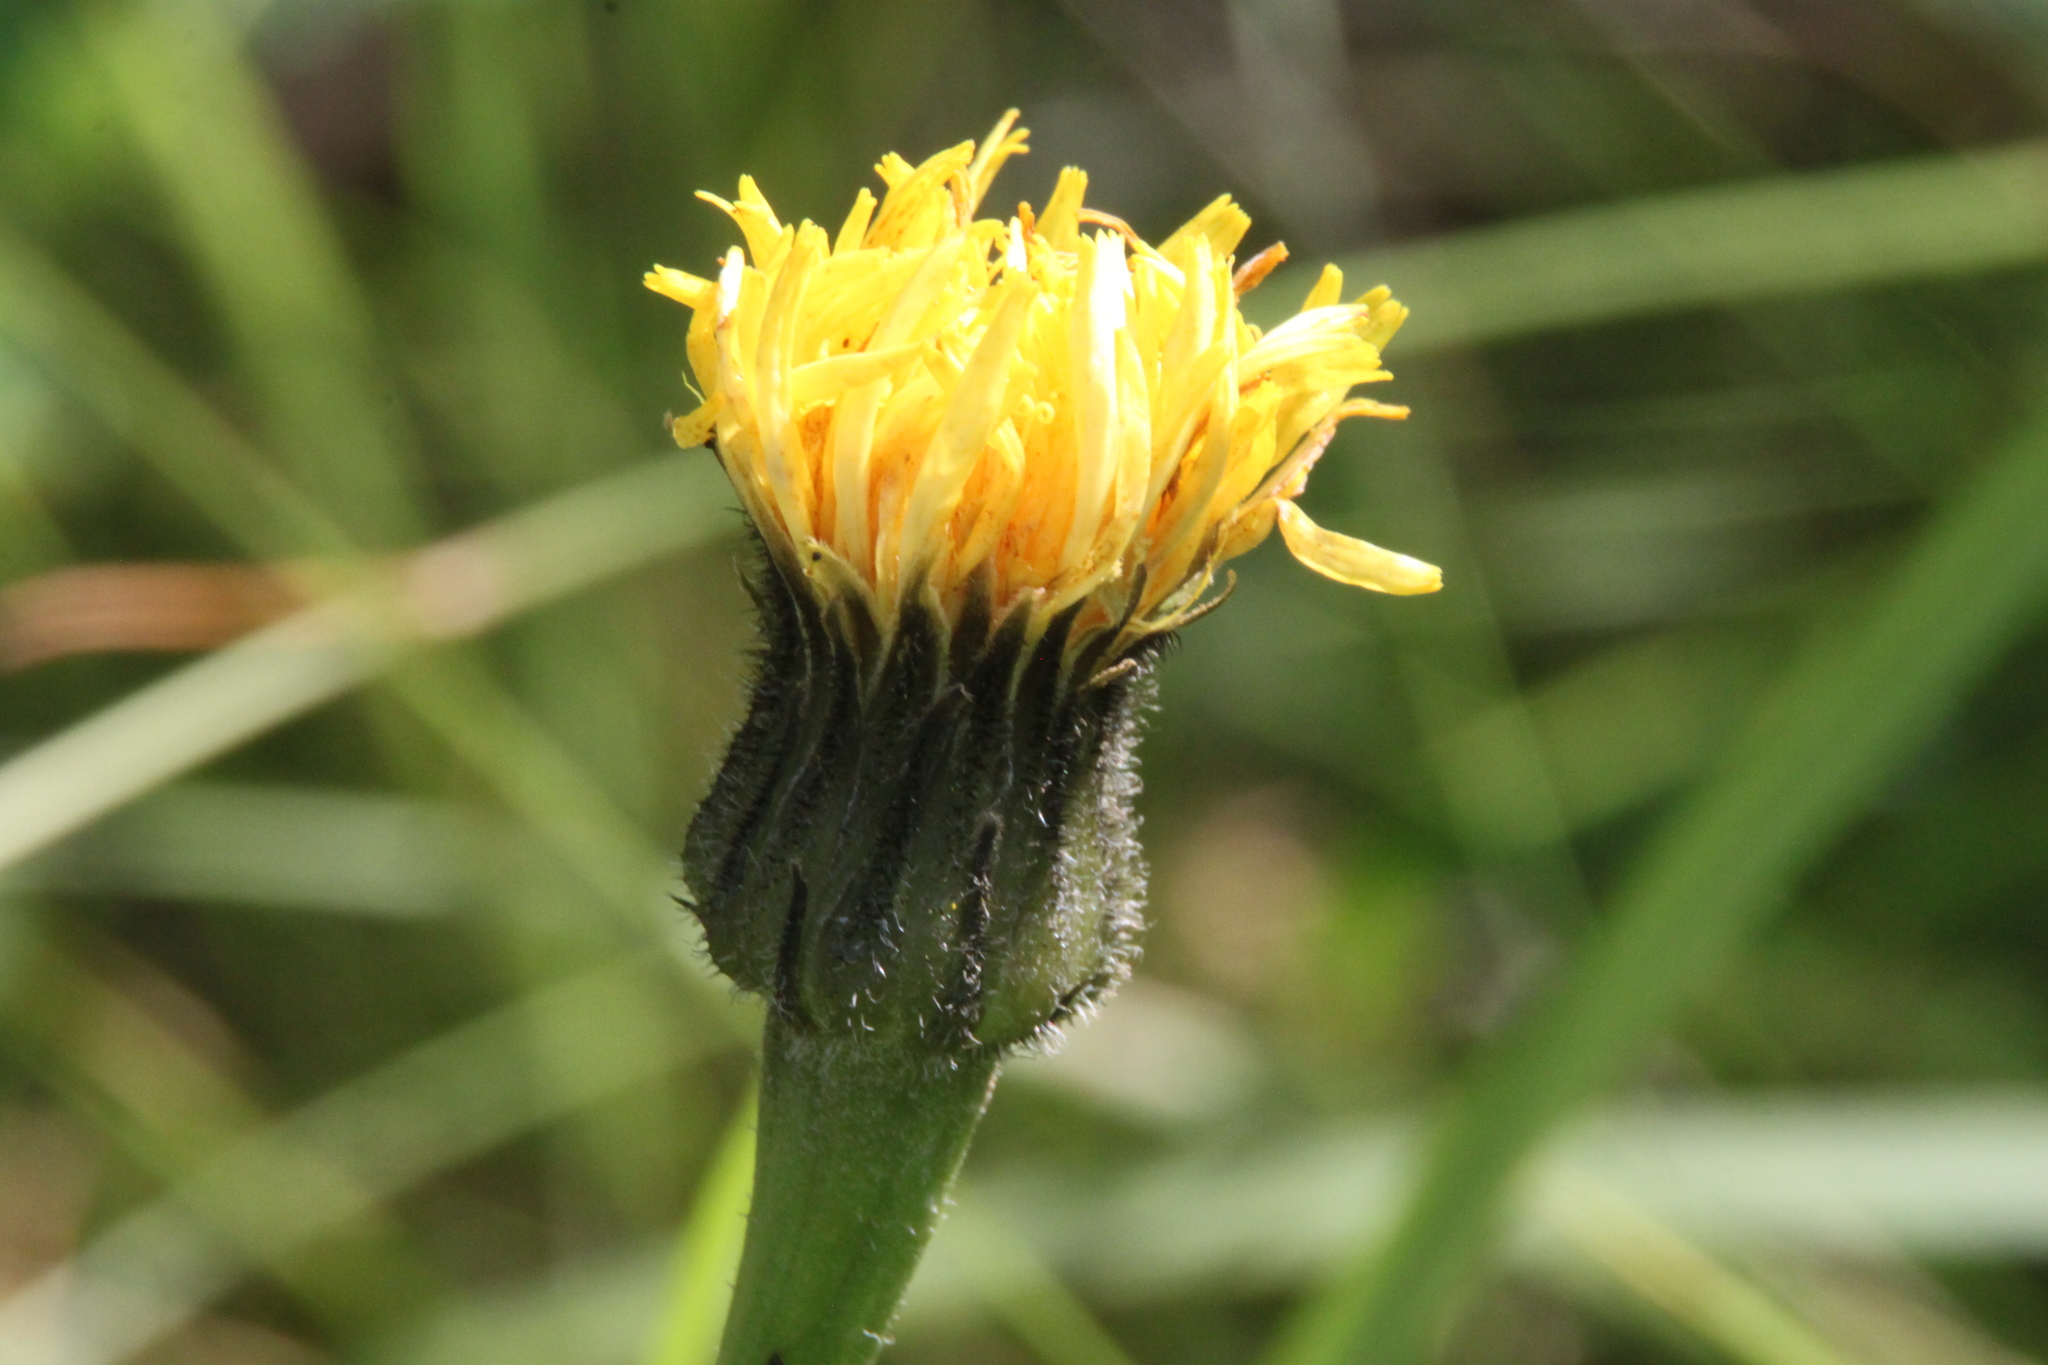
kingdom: Plantae
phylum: Tracheophyta
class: Magnoliopsida
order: Asterales
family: Asteraceae
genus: Trommsdorffia
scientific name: Trommsdorffia maculata
